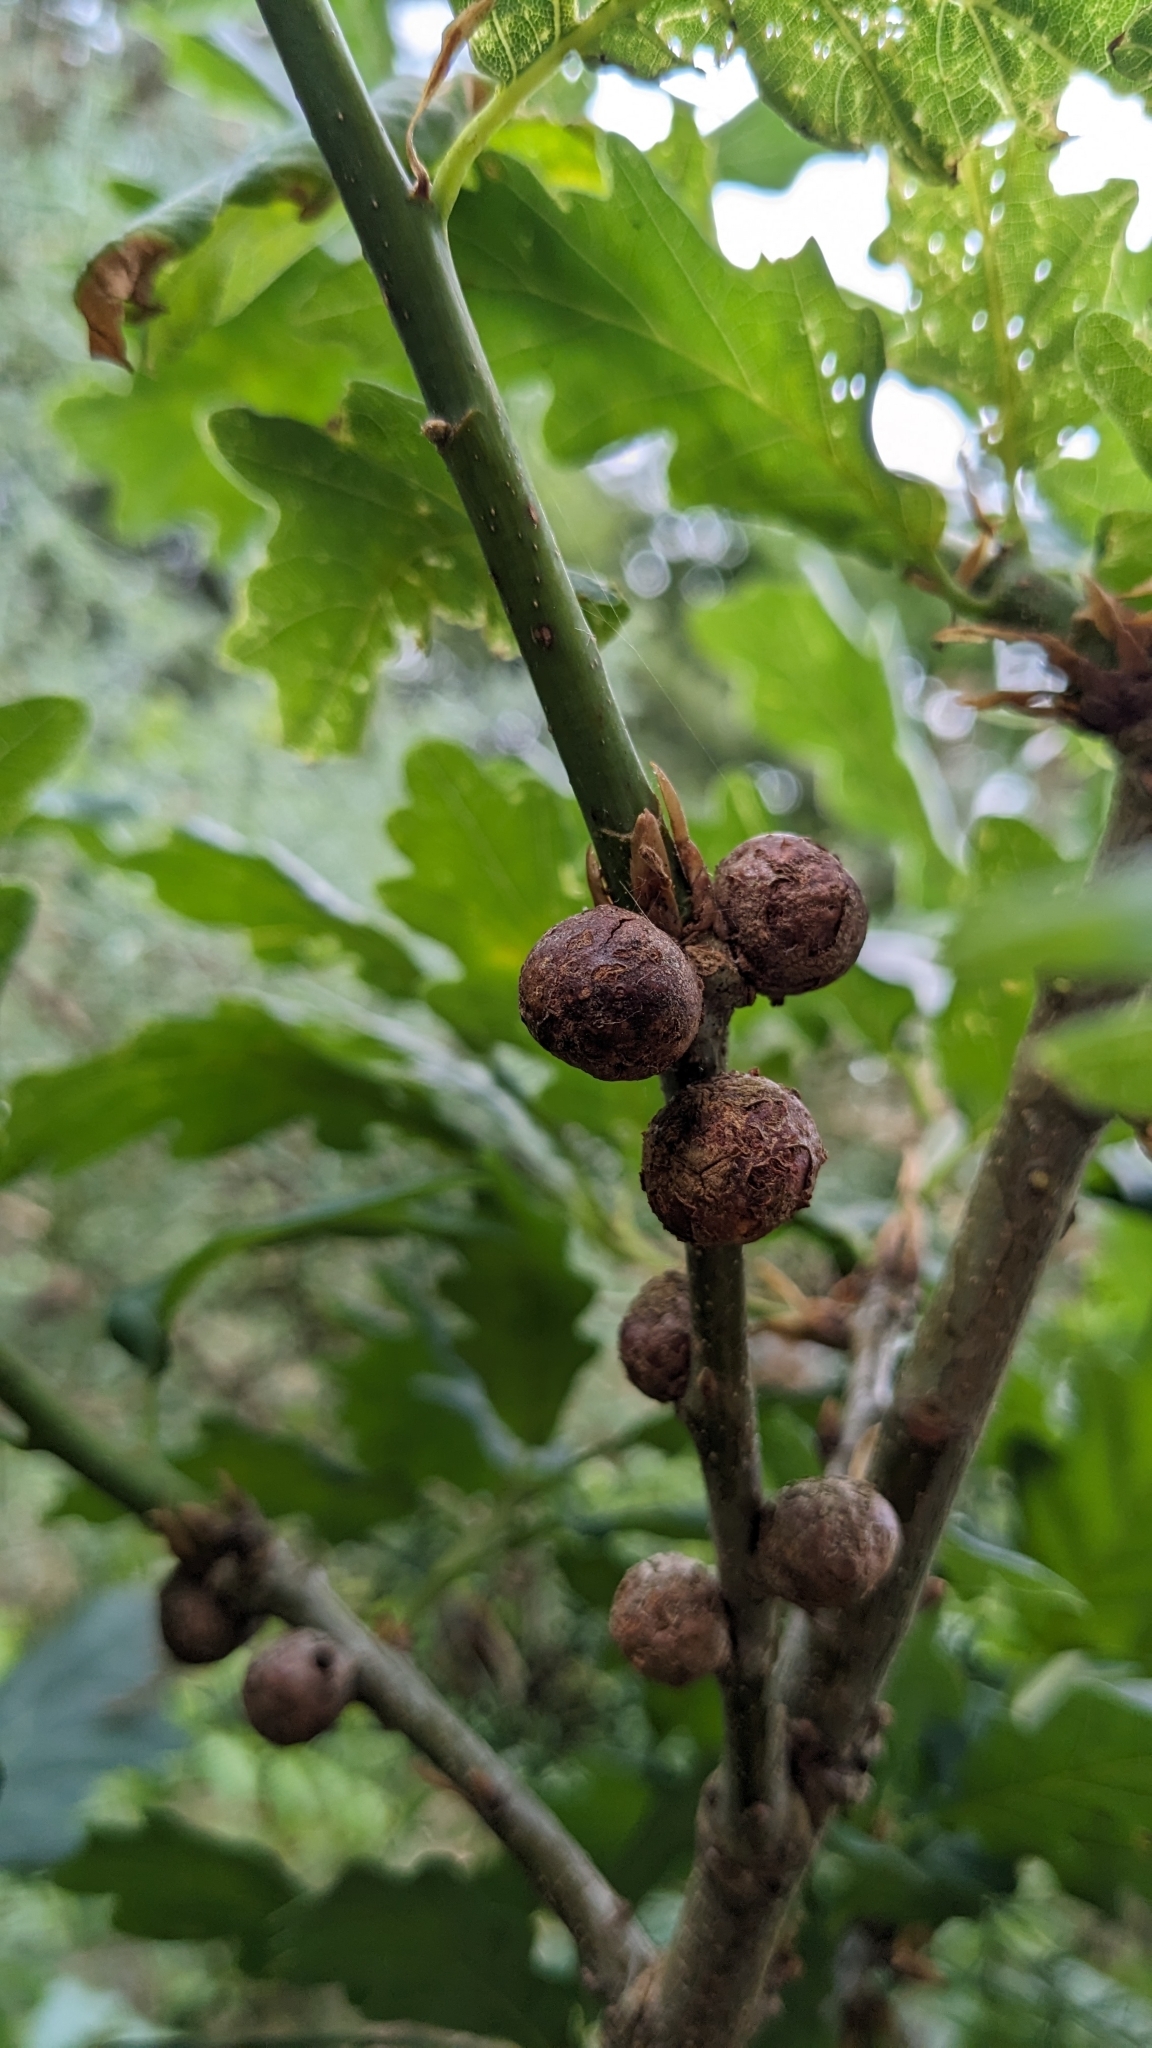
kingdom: Animalia
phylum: Arthropoda
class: Insecta
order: Hymenoptera
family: Cynipidae
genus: Andricus
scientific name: Andricus lignicolus
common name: Cola-nut gall
